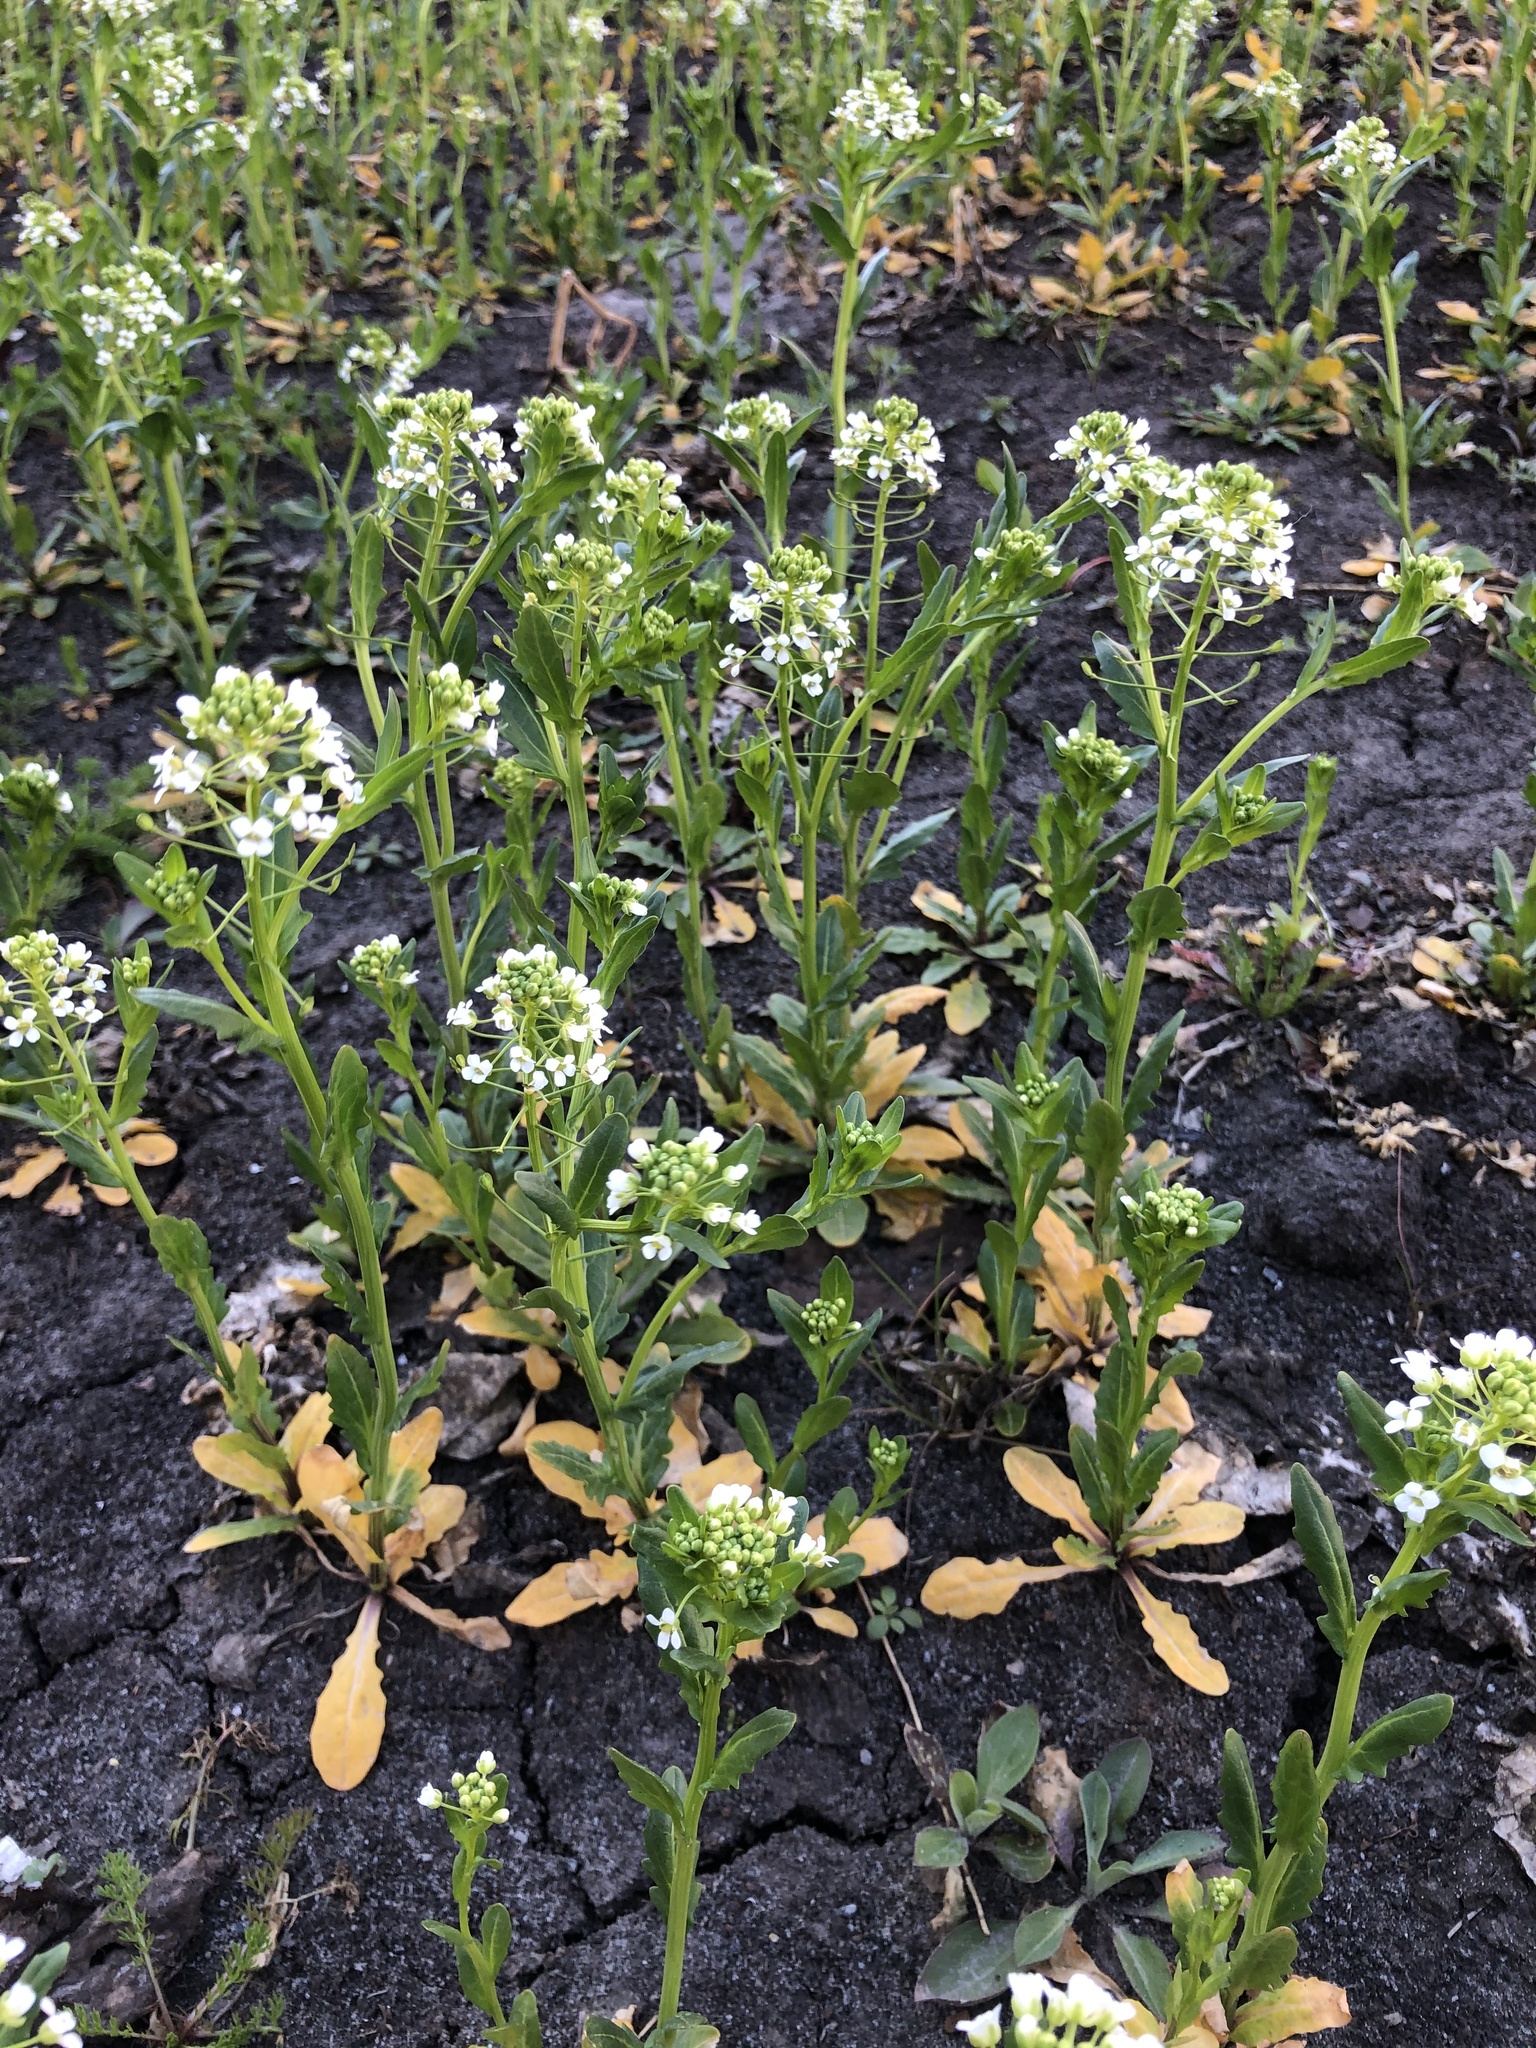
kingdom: Plantae
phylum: Tracheophyta
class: Magnoliopsida
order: Brassicales
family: Brassicaceae
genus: Thlaspi
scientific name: Thlaspi arvense
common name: Field pennycress
